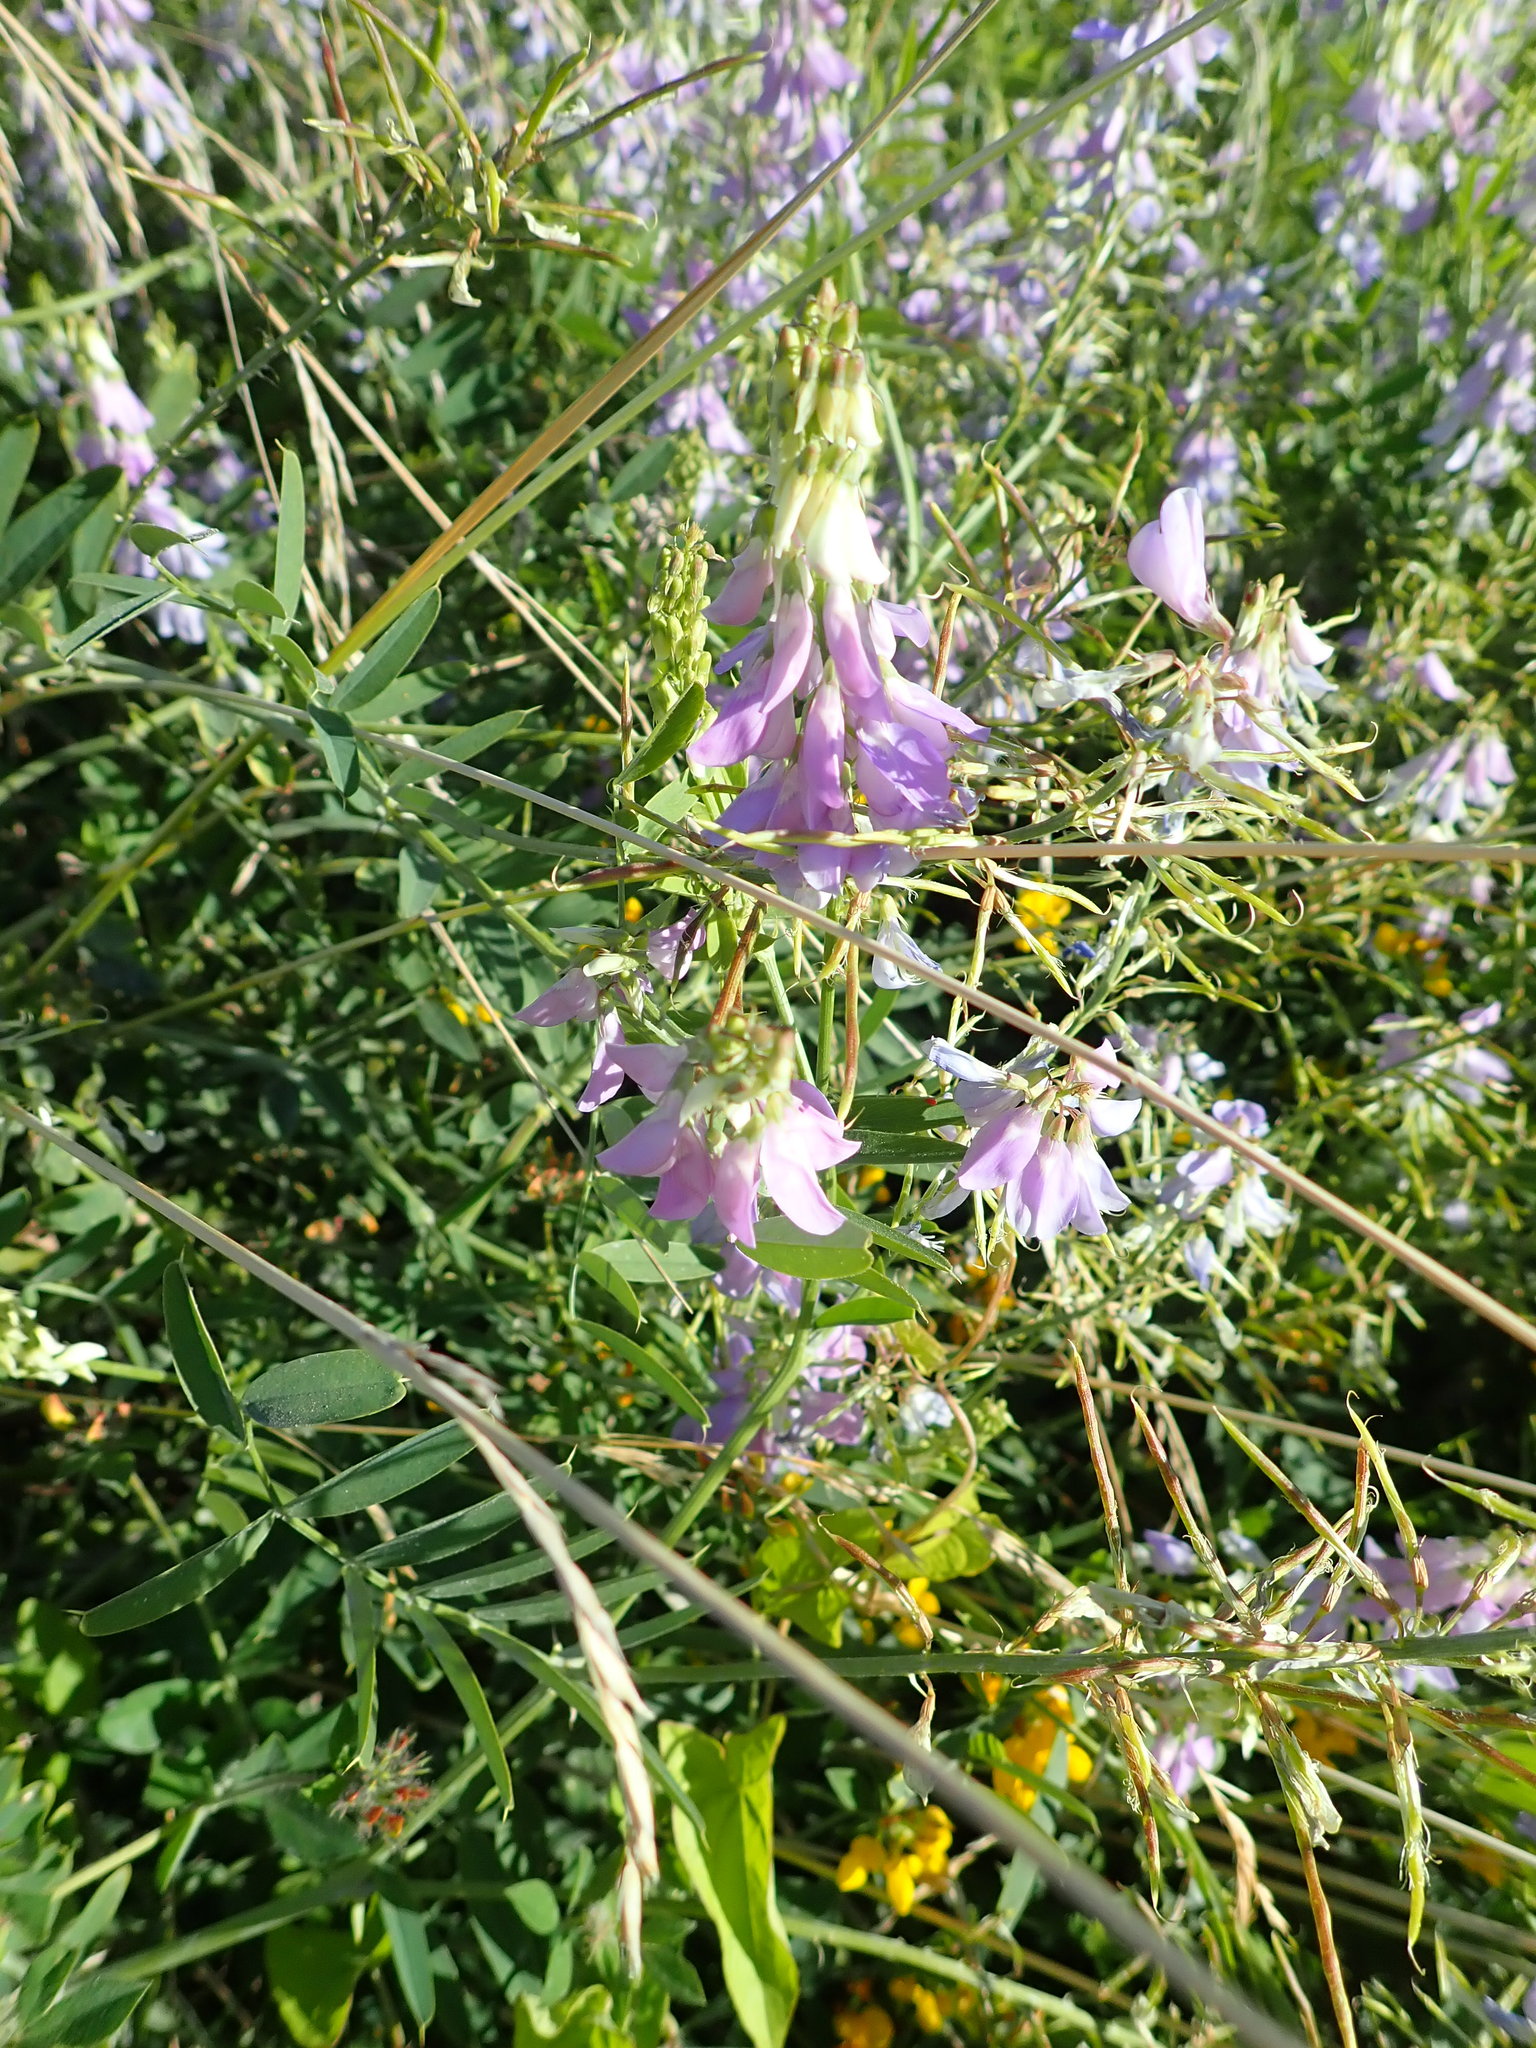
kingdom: Plantae
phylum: Tracheophyta
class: Magnoliopsida
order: Fabales
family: Fabaceae
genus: Galega
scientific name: Galega officinalis
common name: Goat's-rue
